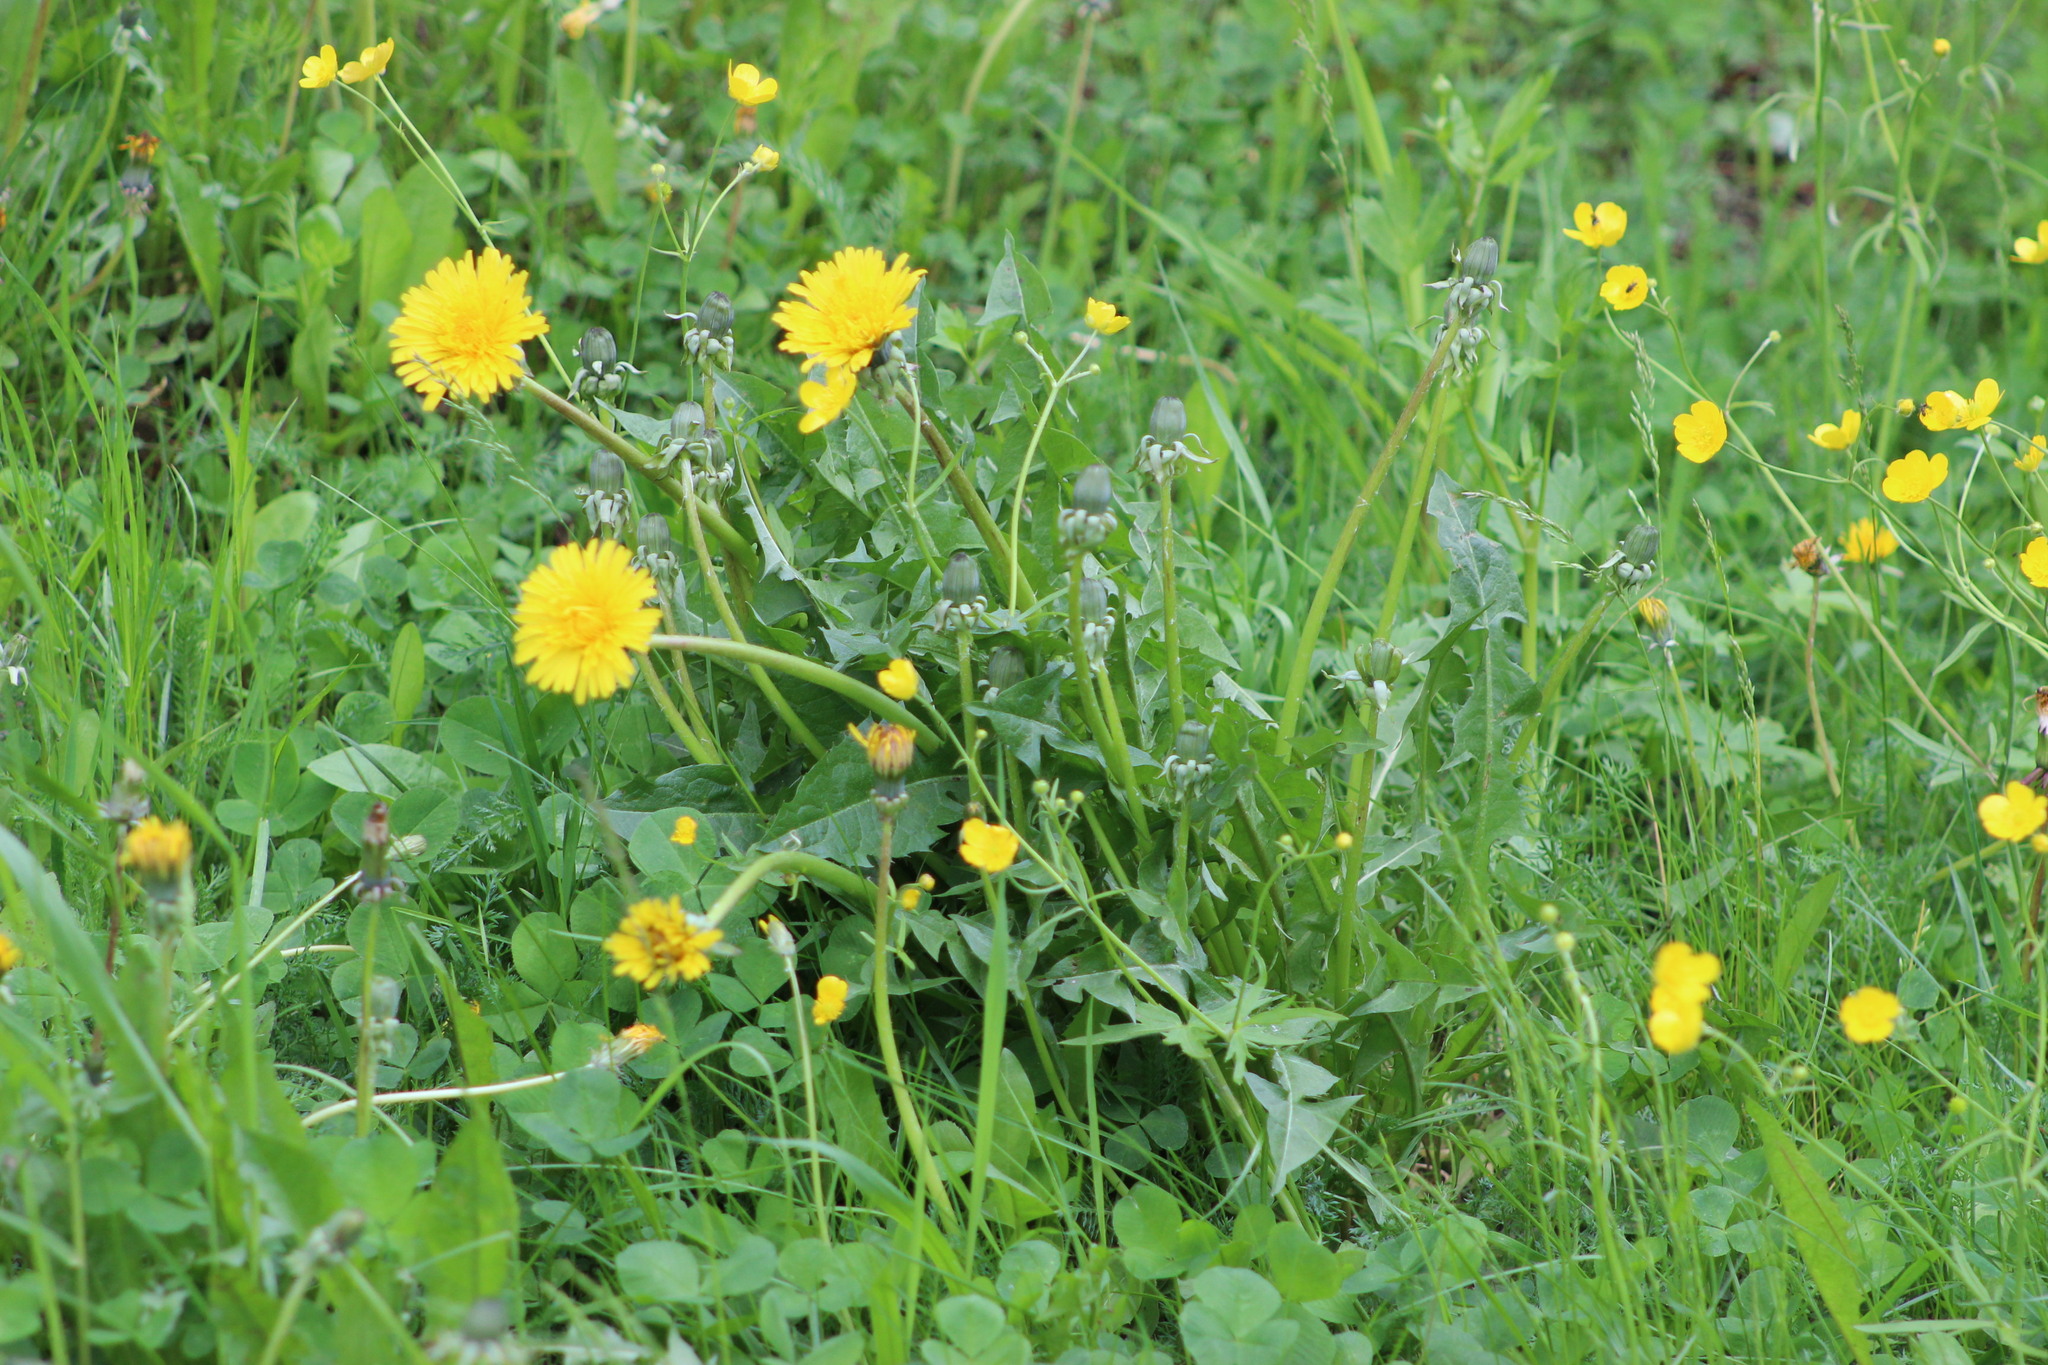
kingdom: Plantae
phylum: Tracheophyta
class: Magnoliopsida
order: Asterales
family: Asteraceae
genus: Taraxacum
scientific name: Taraxacum officinale
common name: Common dandelion
